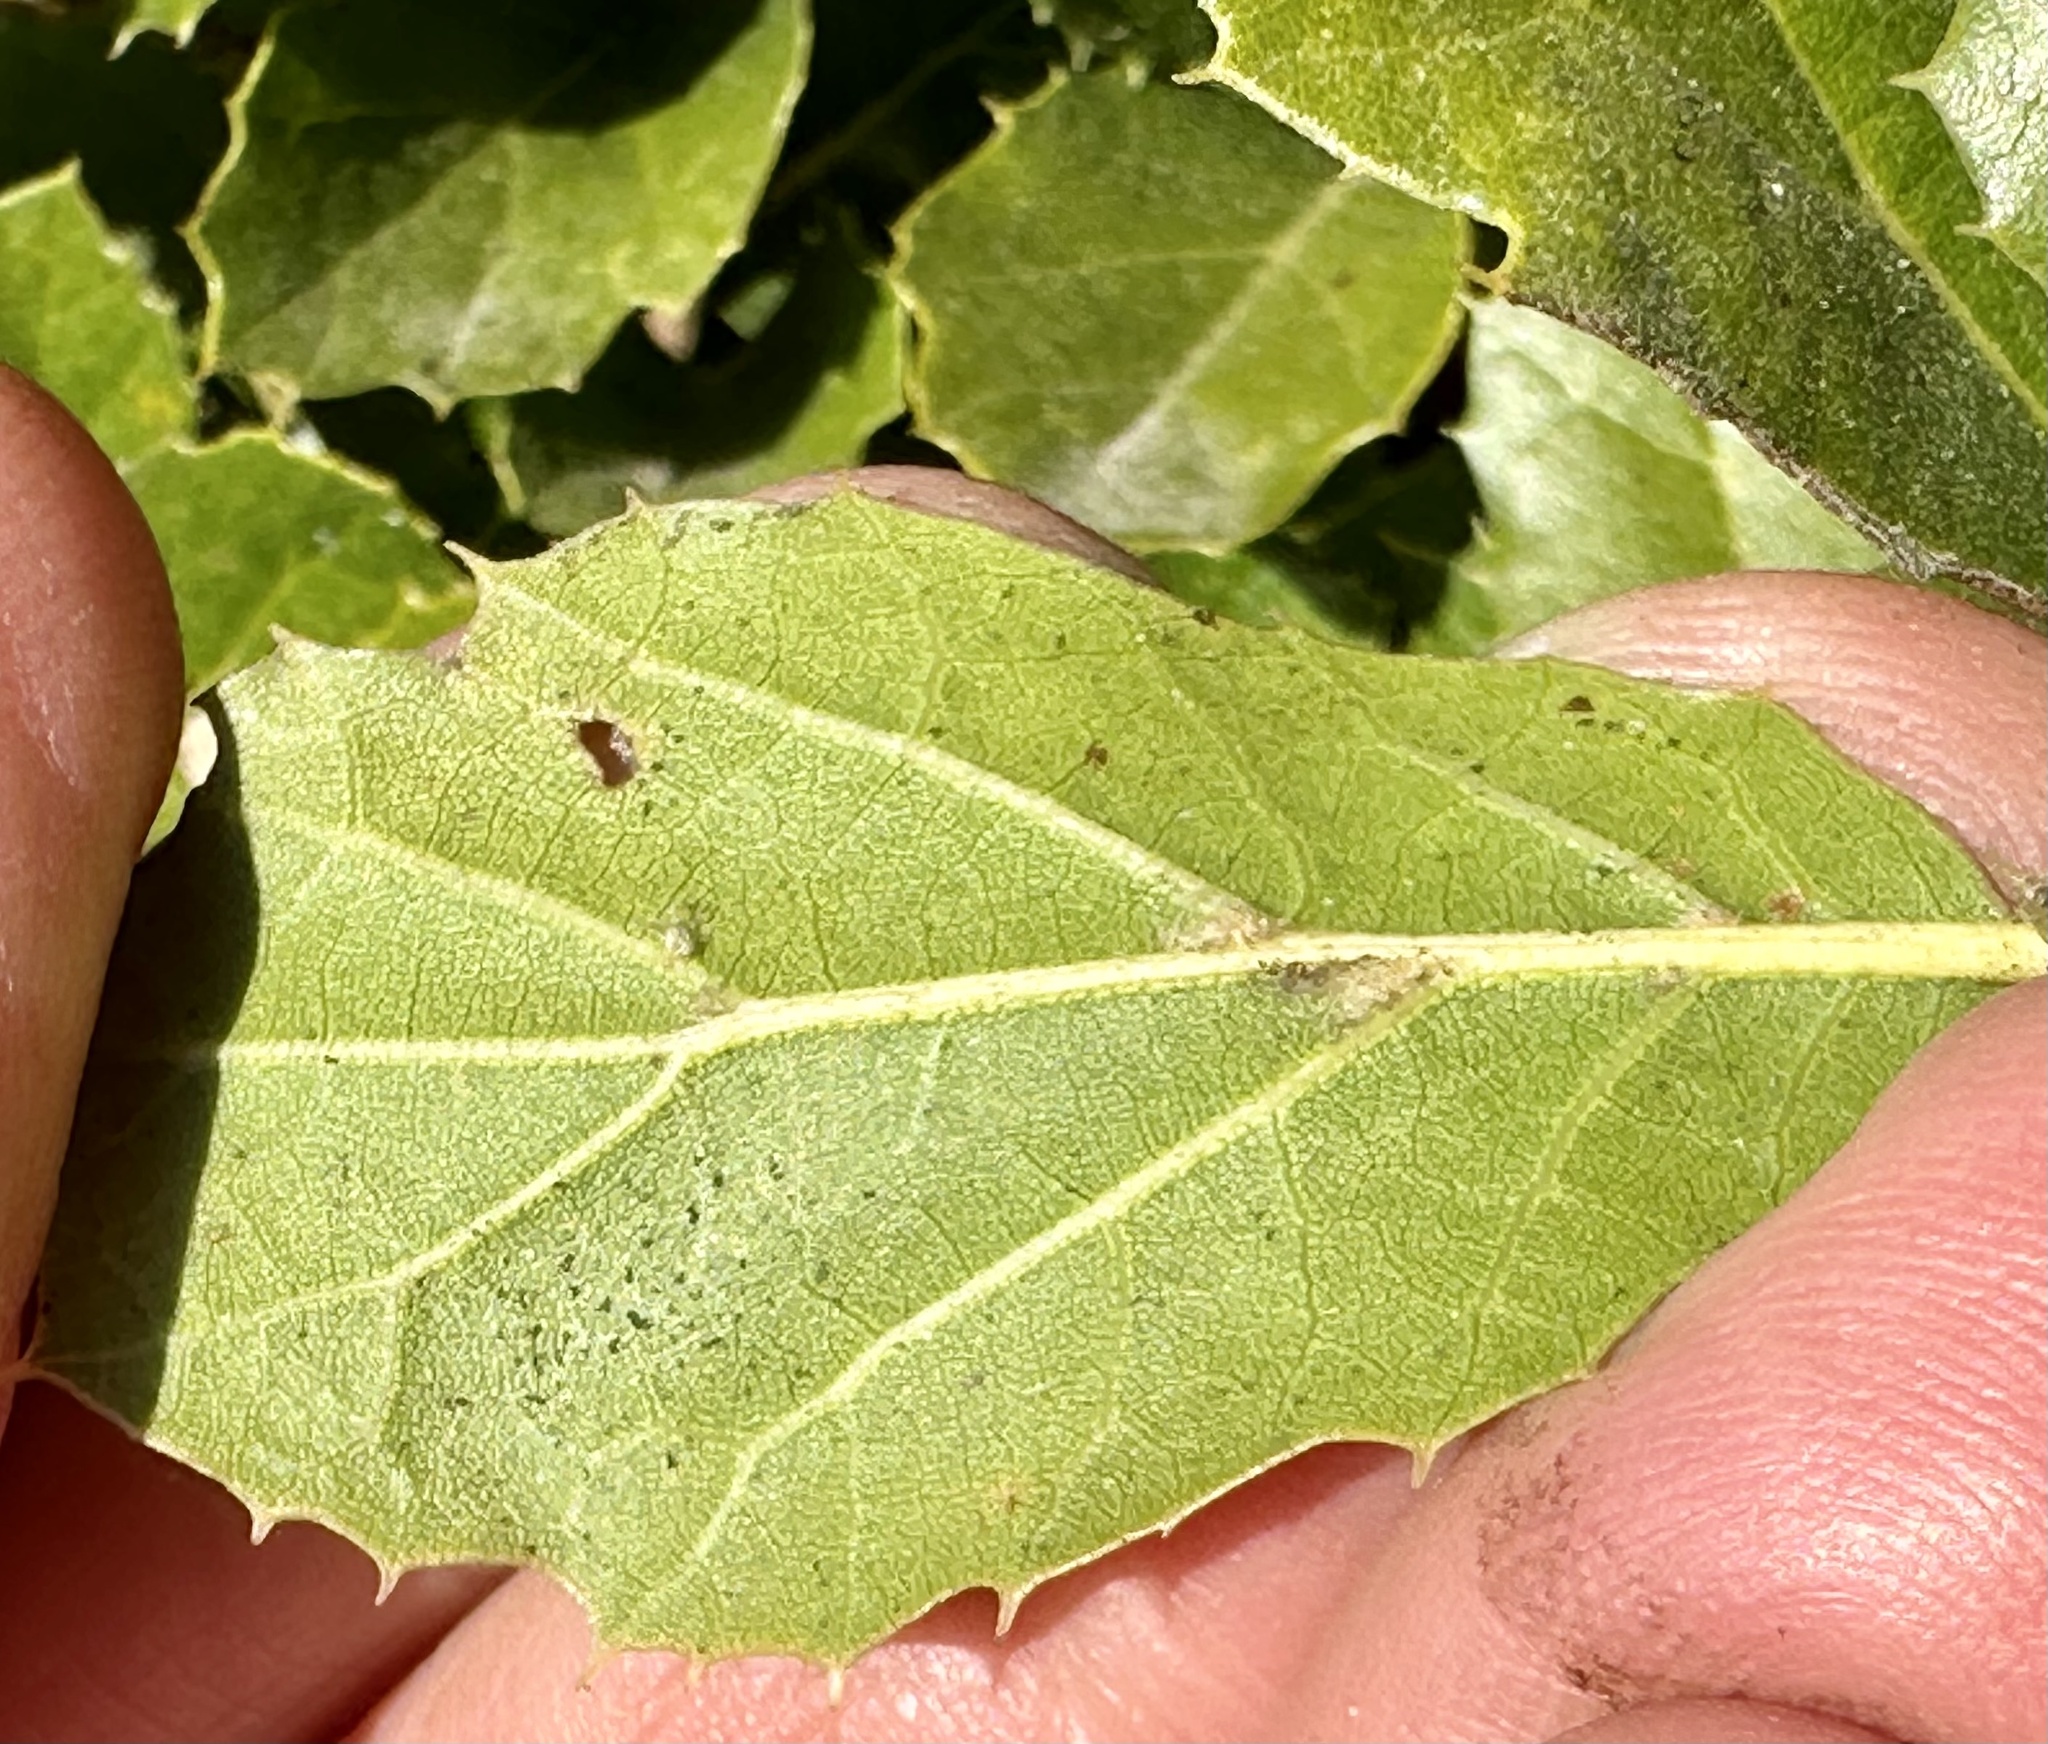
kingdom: Plantae
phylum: Tracheophyta
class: Magnoliopsida
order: Fagales
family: Fagaceae
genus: Quercus
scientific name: Quercus agrifolia
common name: California live oak
